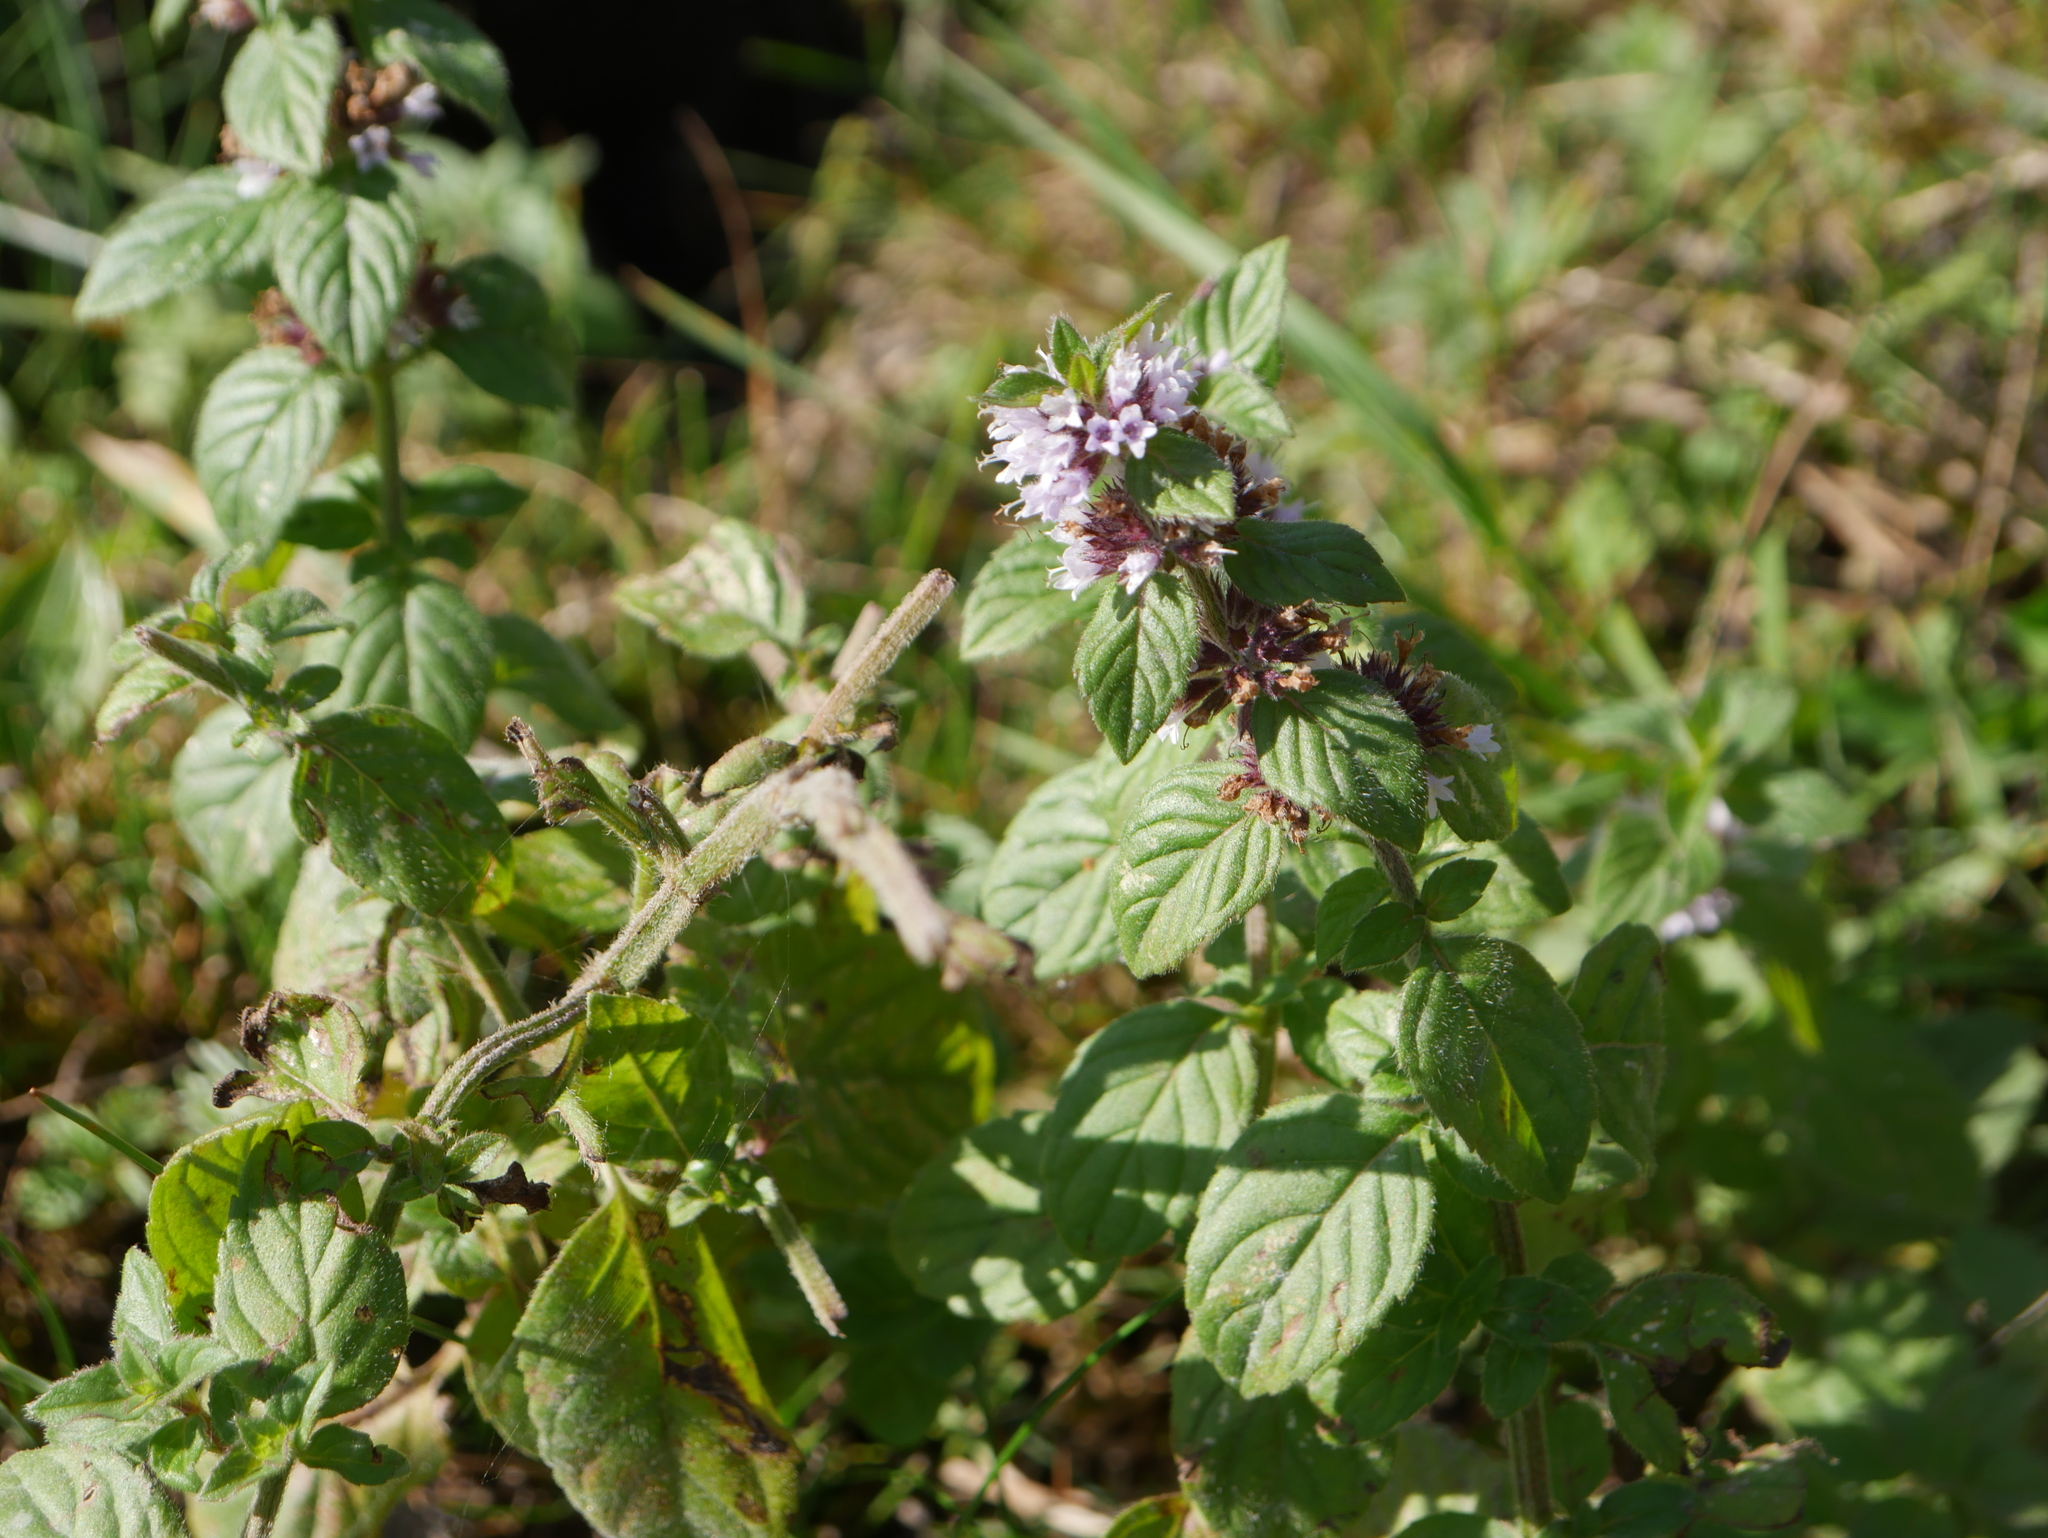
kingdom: Plantae
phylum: Tracheophyta
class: Magnoliopsida
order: Lamiales
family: Lamiaceae
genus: Mentha
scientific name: Mentha aquatica
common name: Water mint
